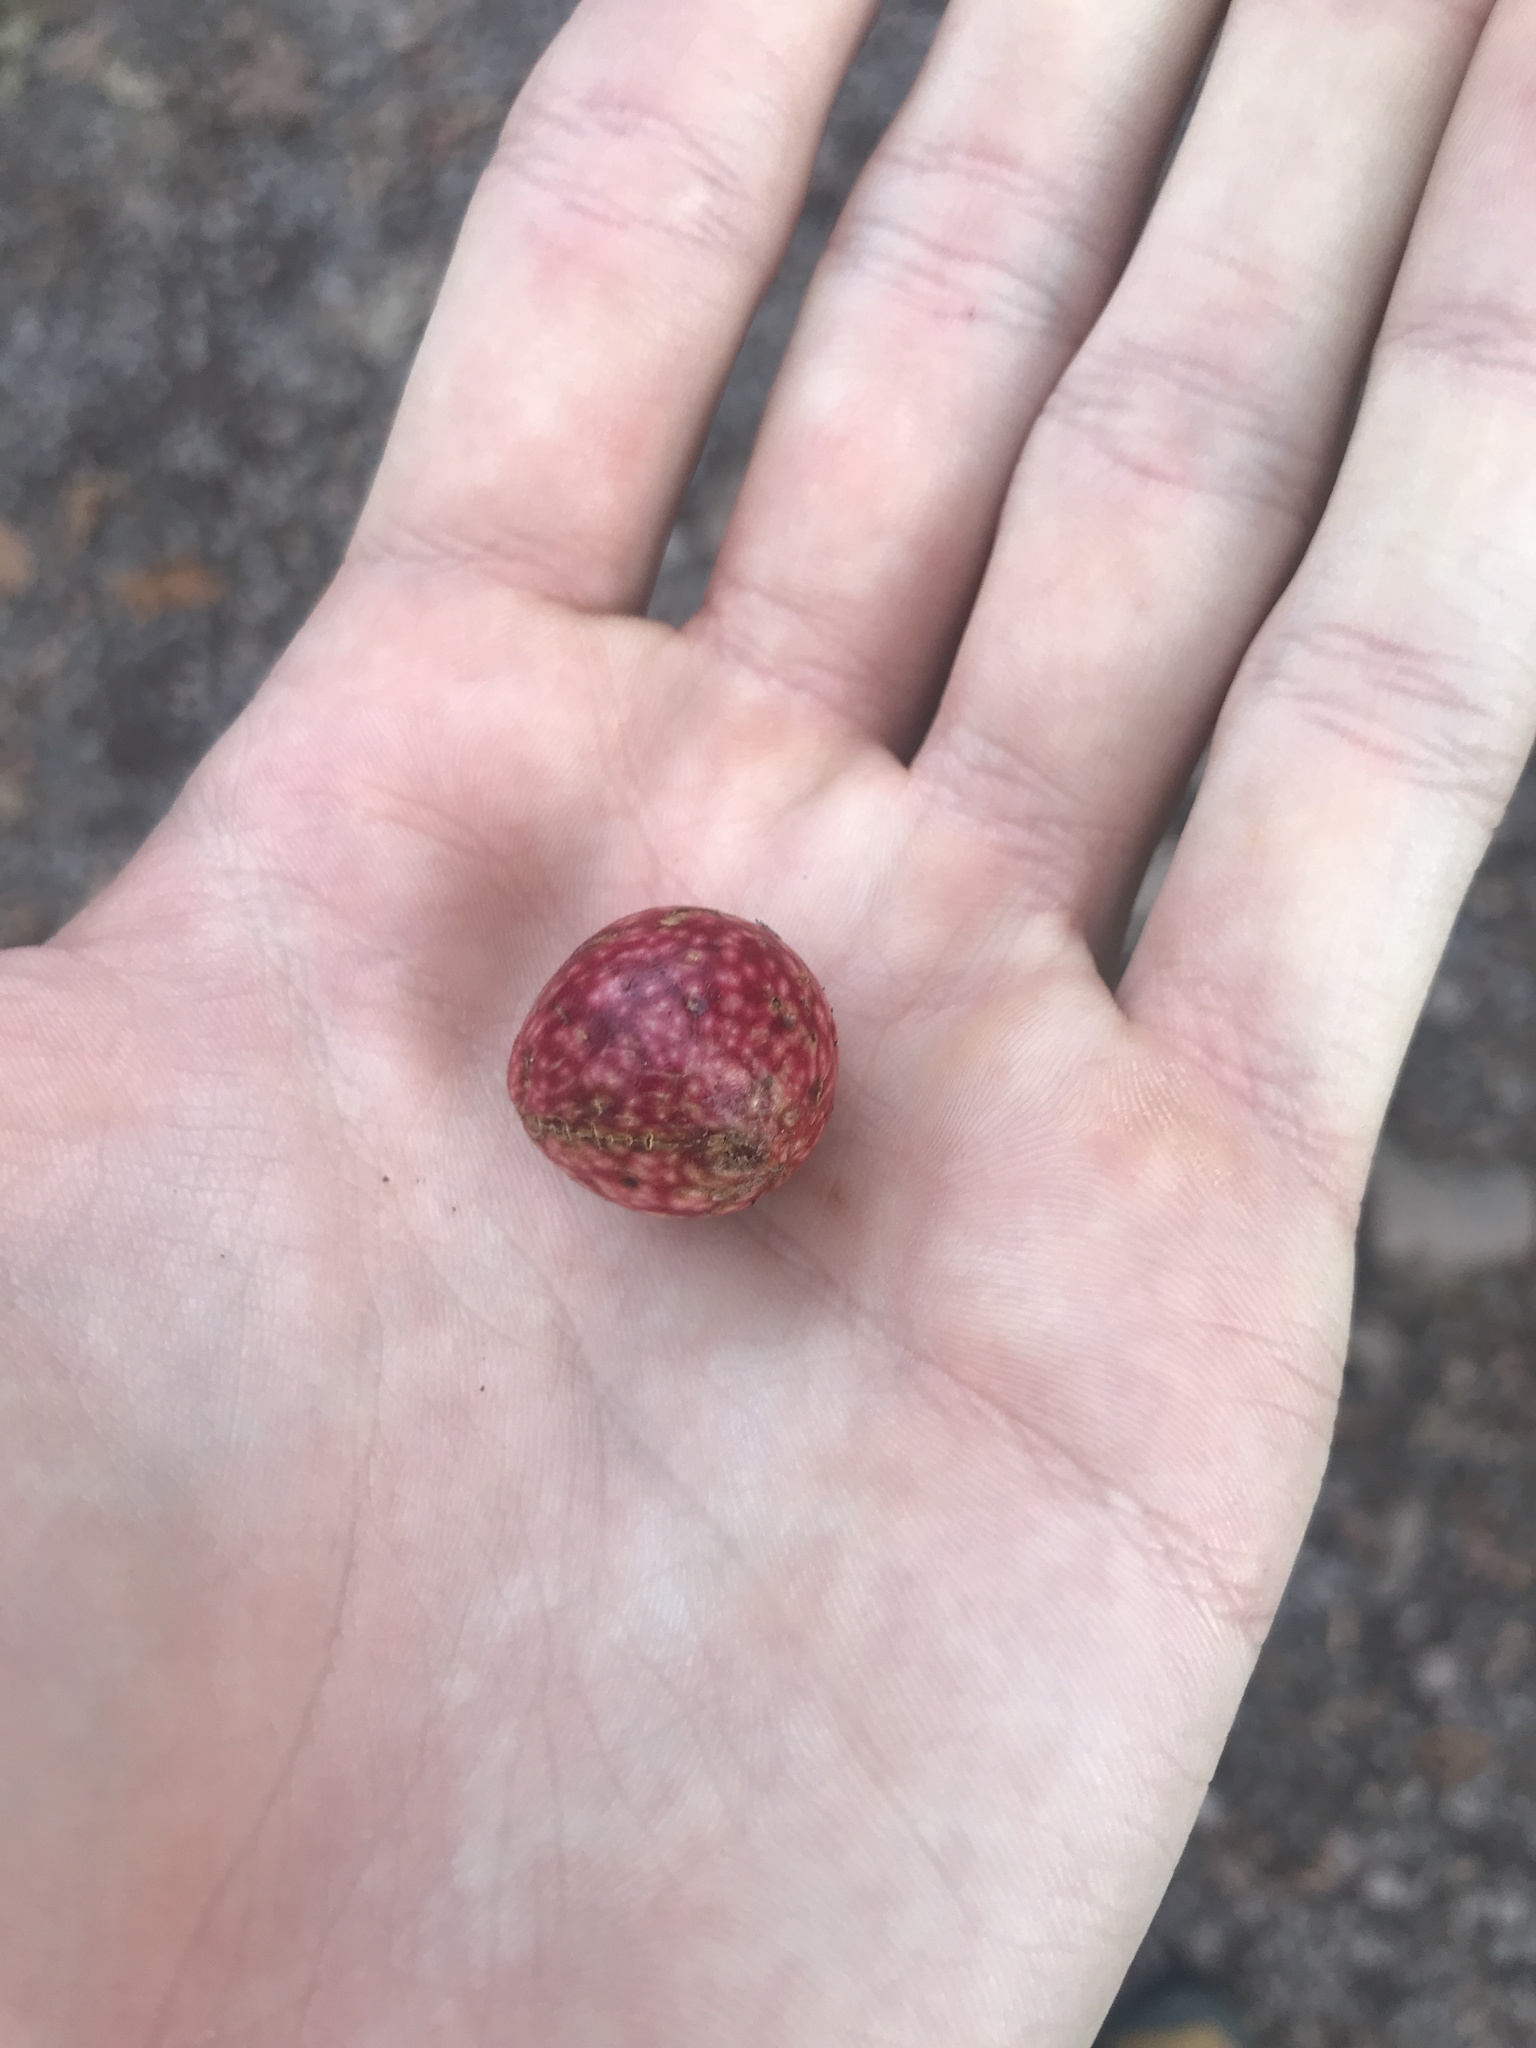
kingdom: Animalia
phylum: Arthropoda
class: Insecta
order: Hymenoptera
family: Cynipidae
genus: Amphibolips
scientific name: Amphibolips
